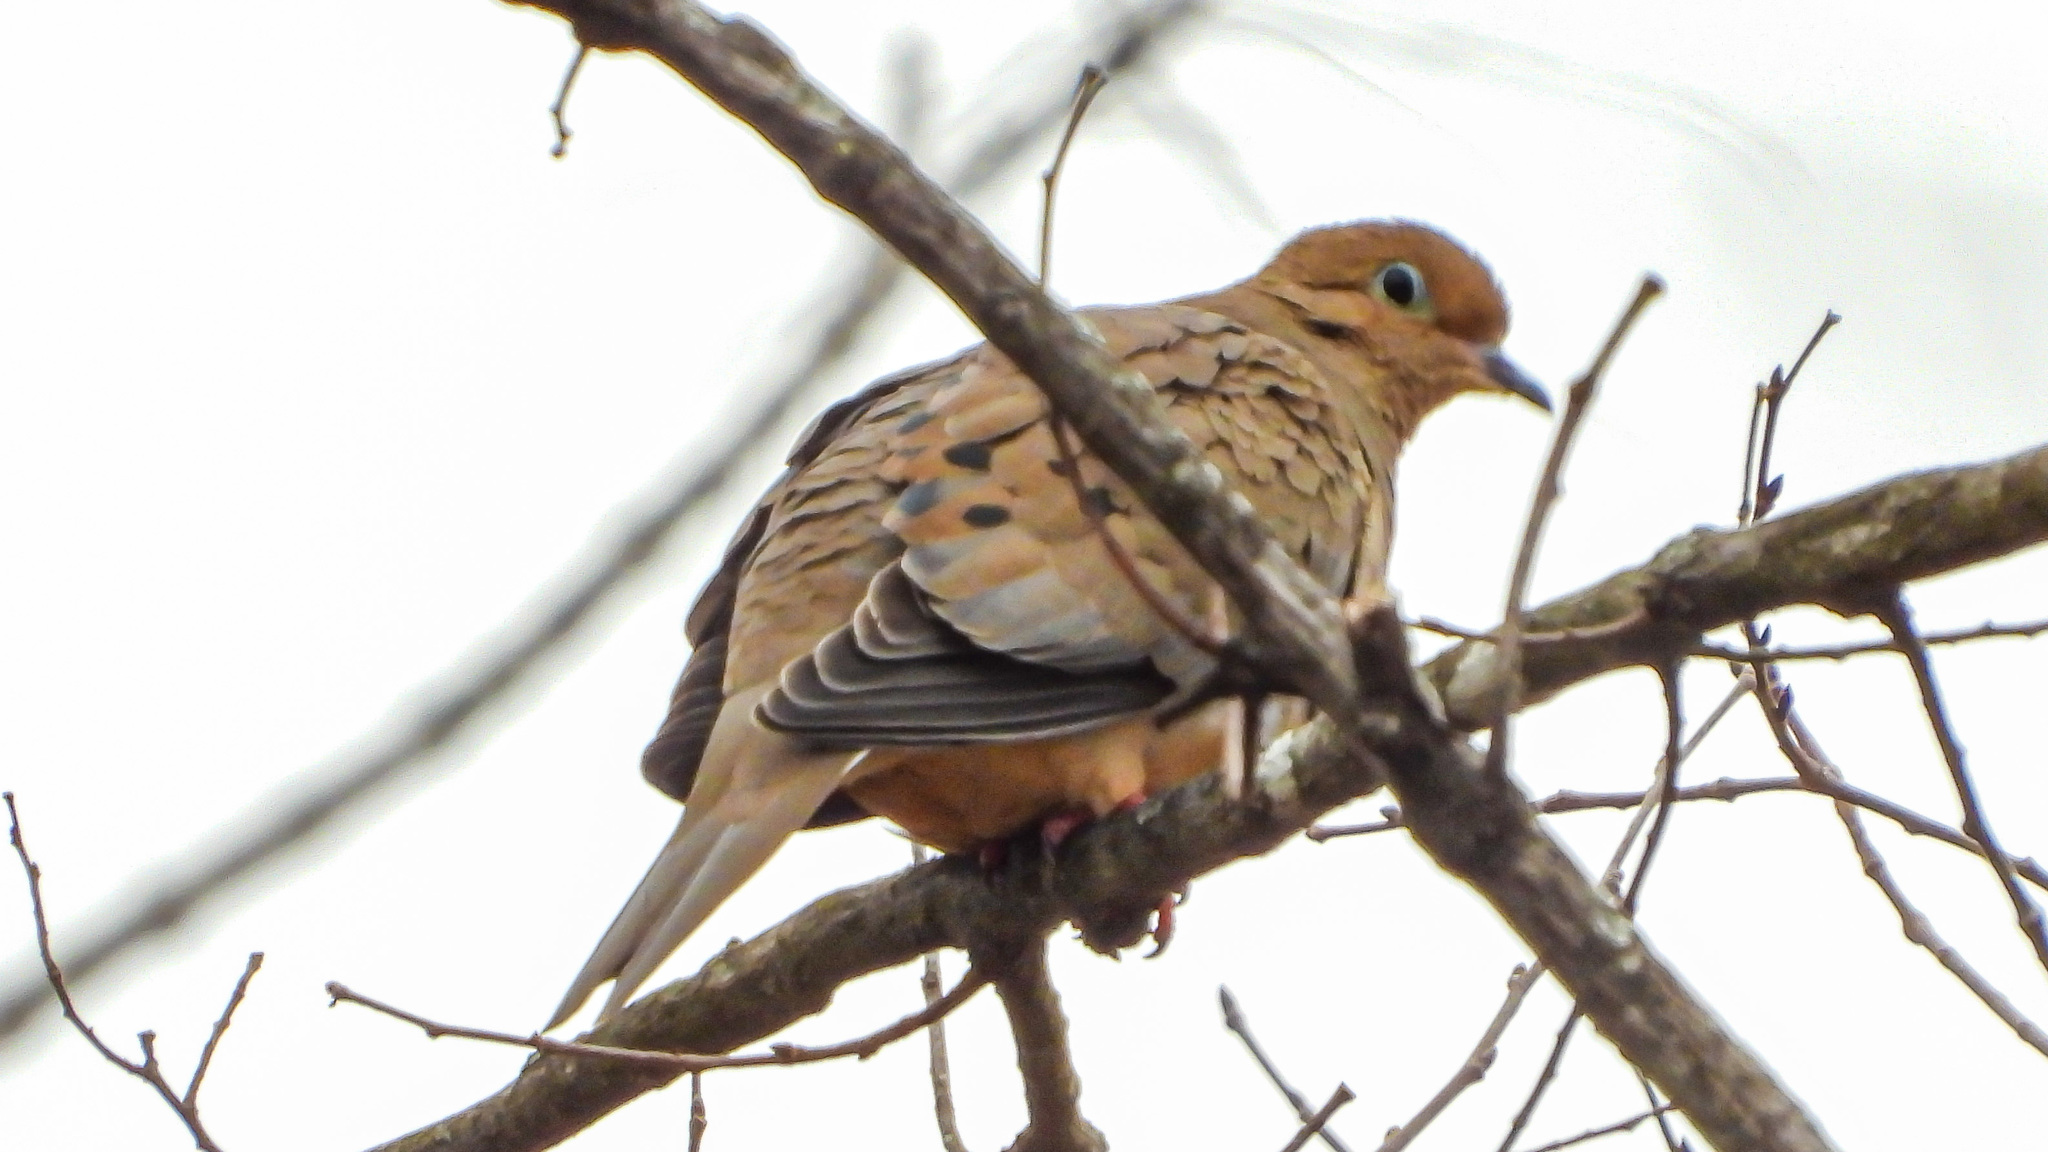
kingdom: Animalia
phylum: Chordata
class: Aves
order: Columbiformes
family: Columbidae
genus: Zenaida
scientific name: Zenaida macroura
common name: Mourning dove
